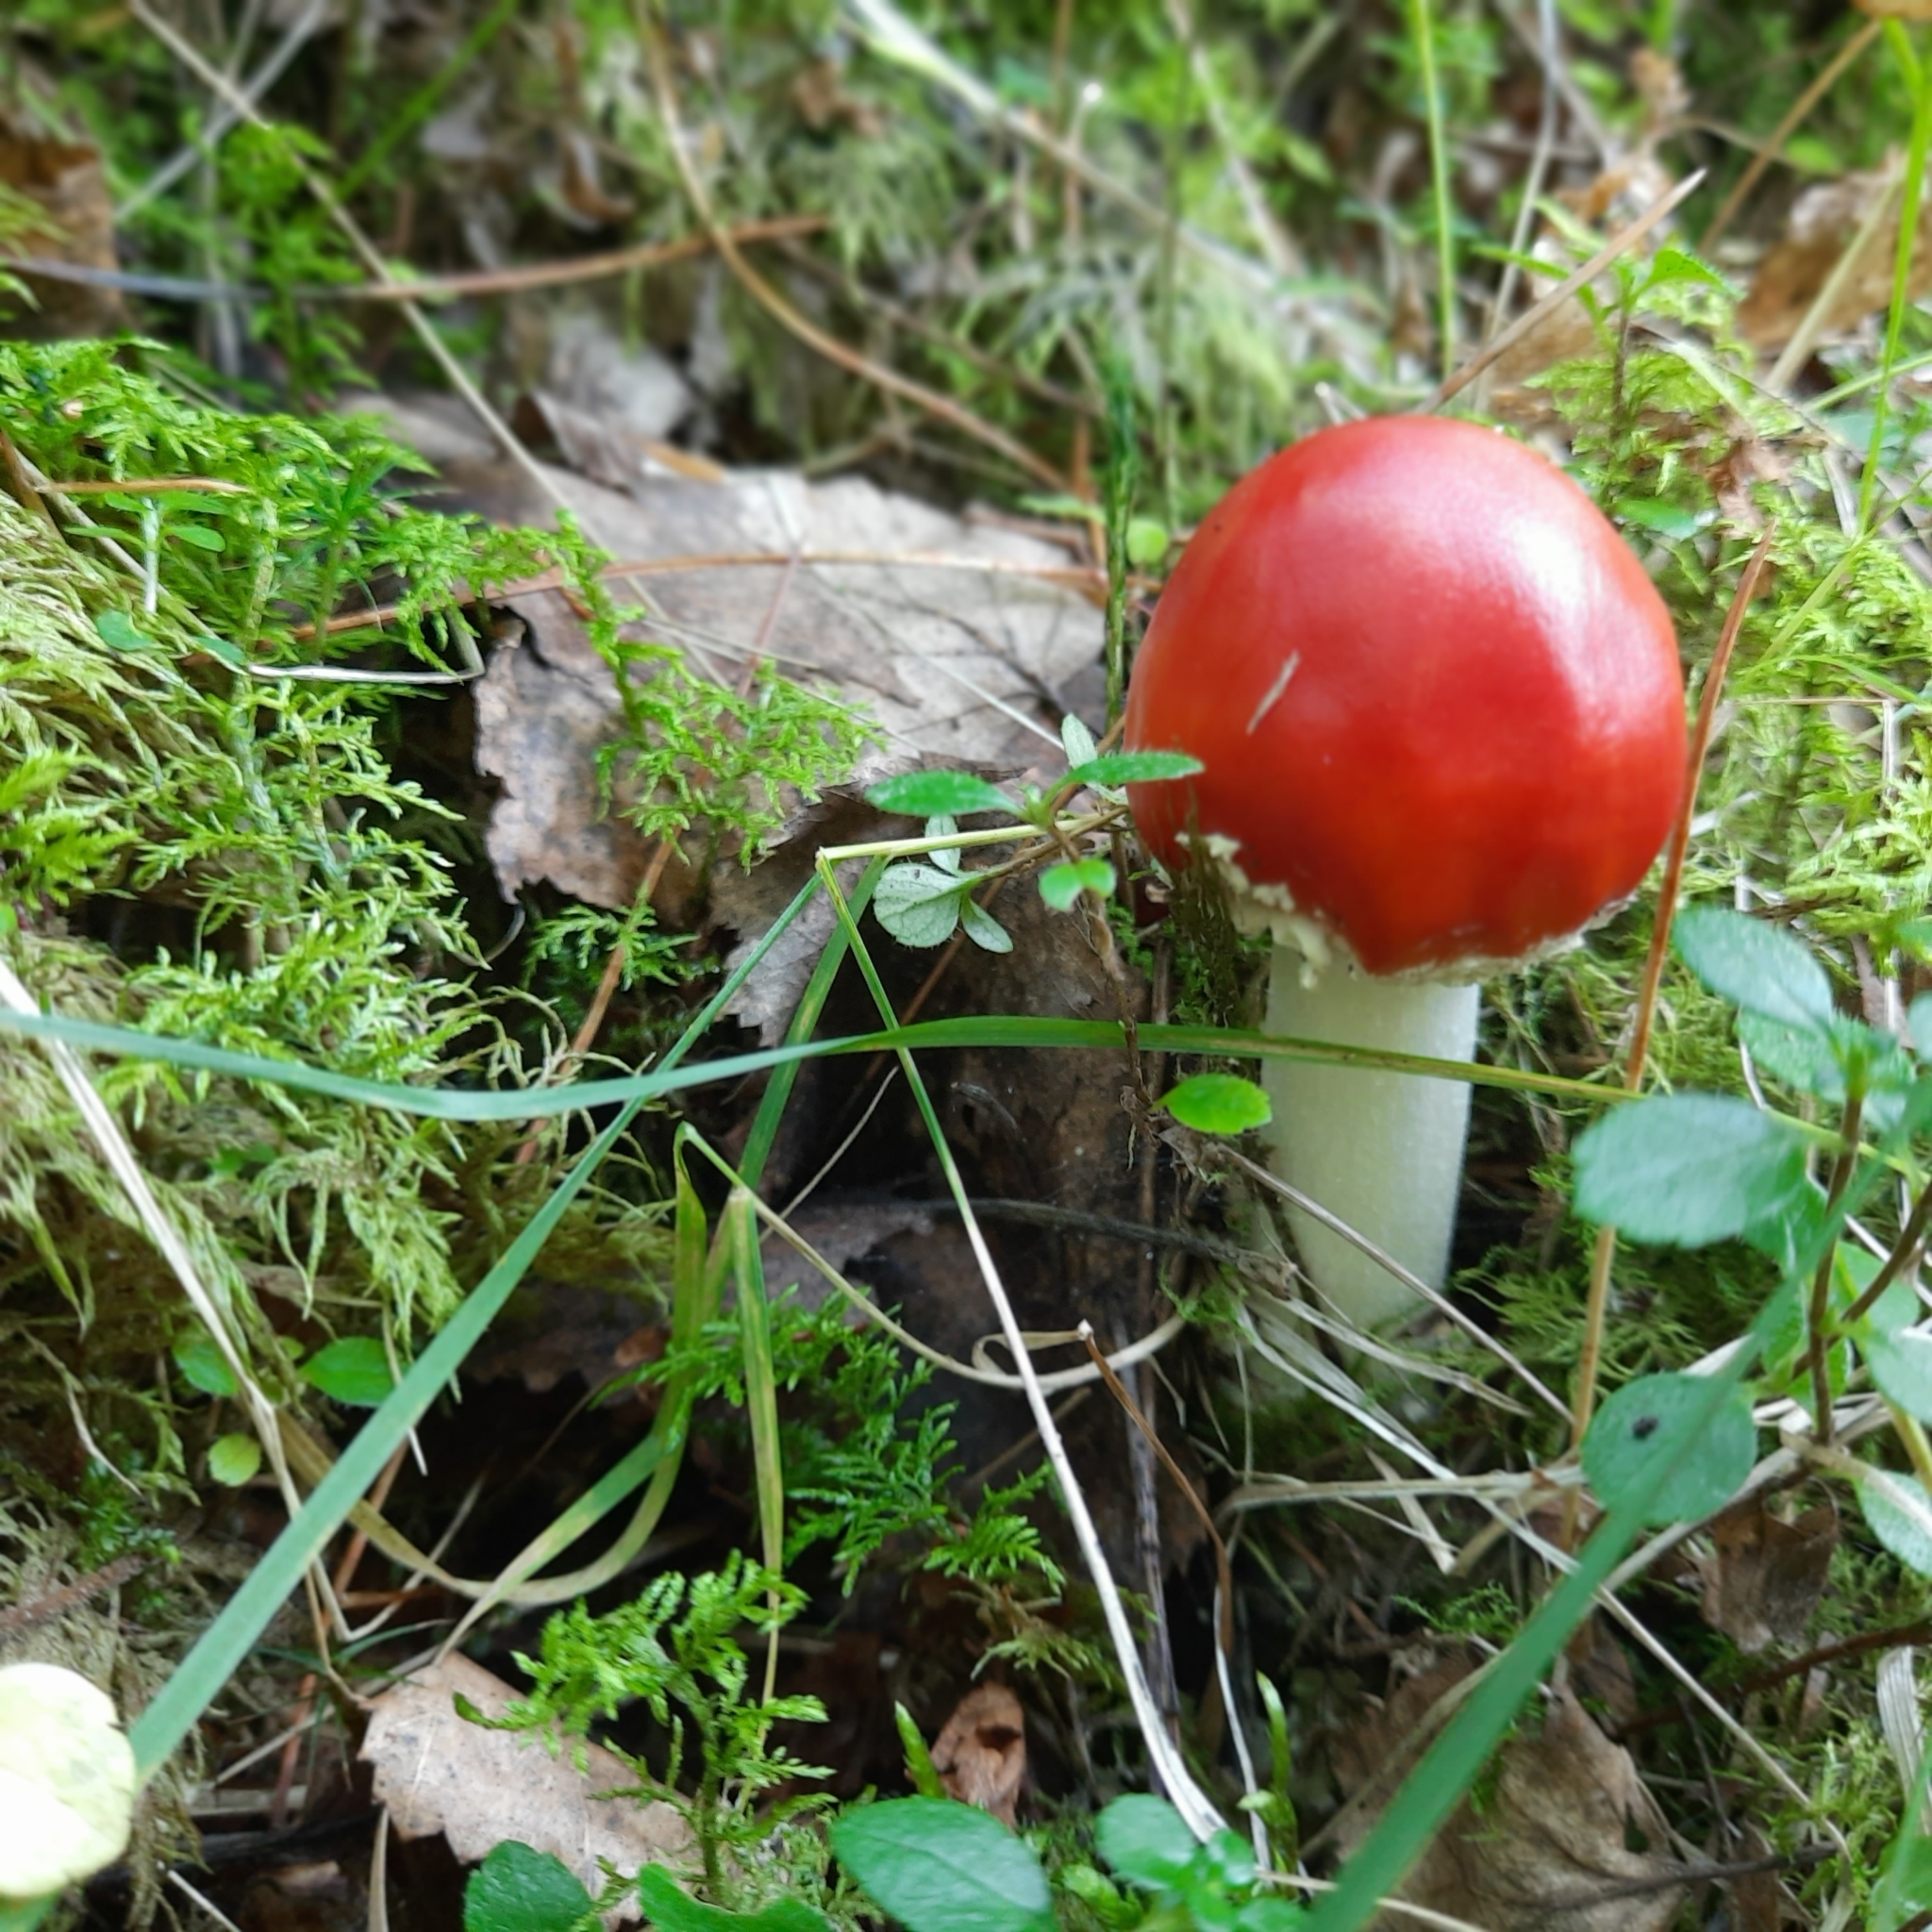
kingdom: Fungi
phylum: Basidiomycota
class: Agaricomycetes
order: Agaricales
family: Amanitaceae
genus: Amanita
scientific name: Amanita muscaria
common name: Fly agaric
